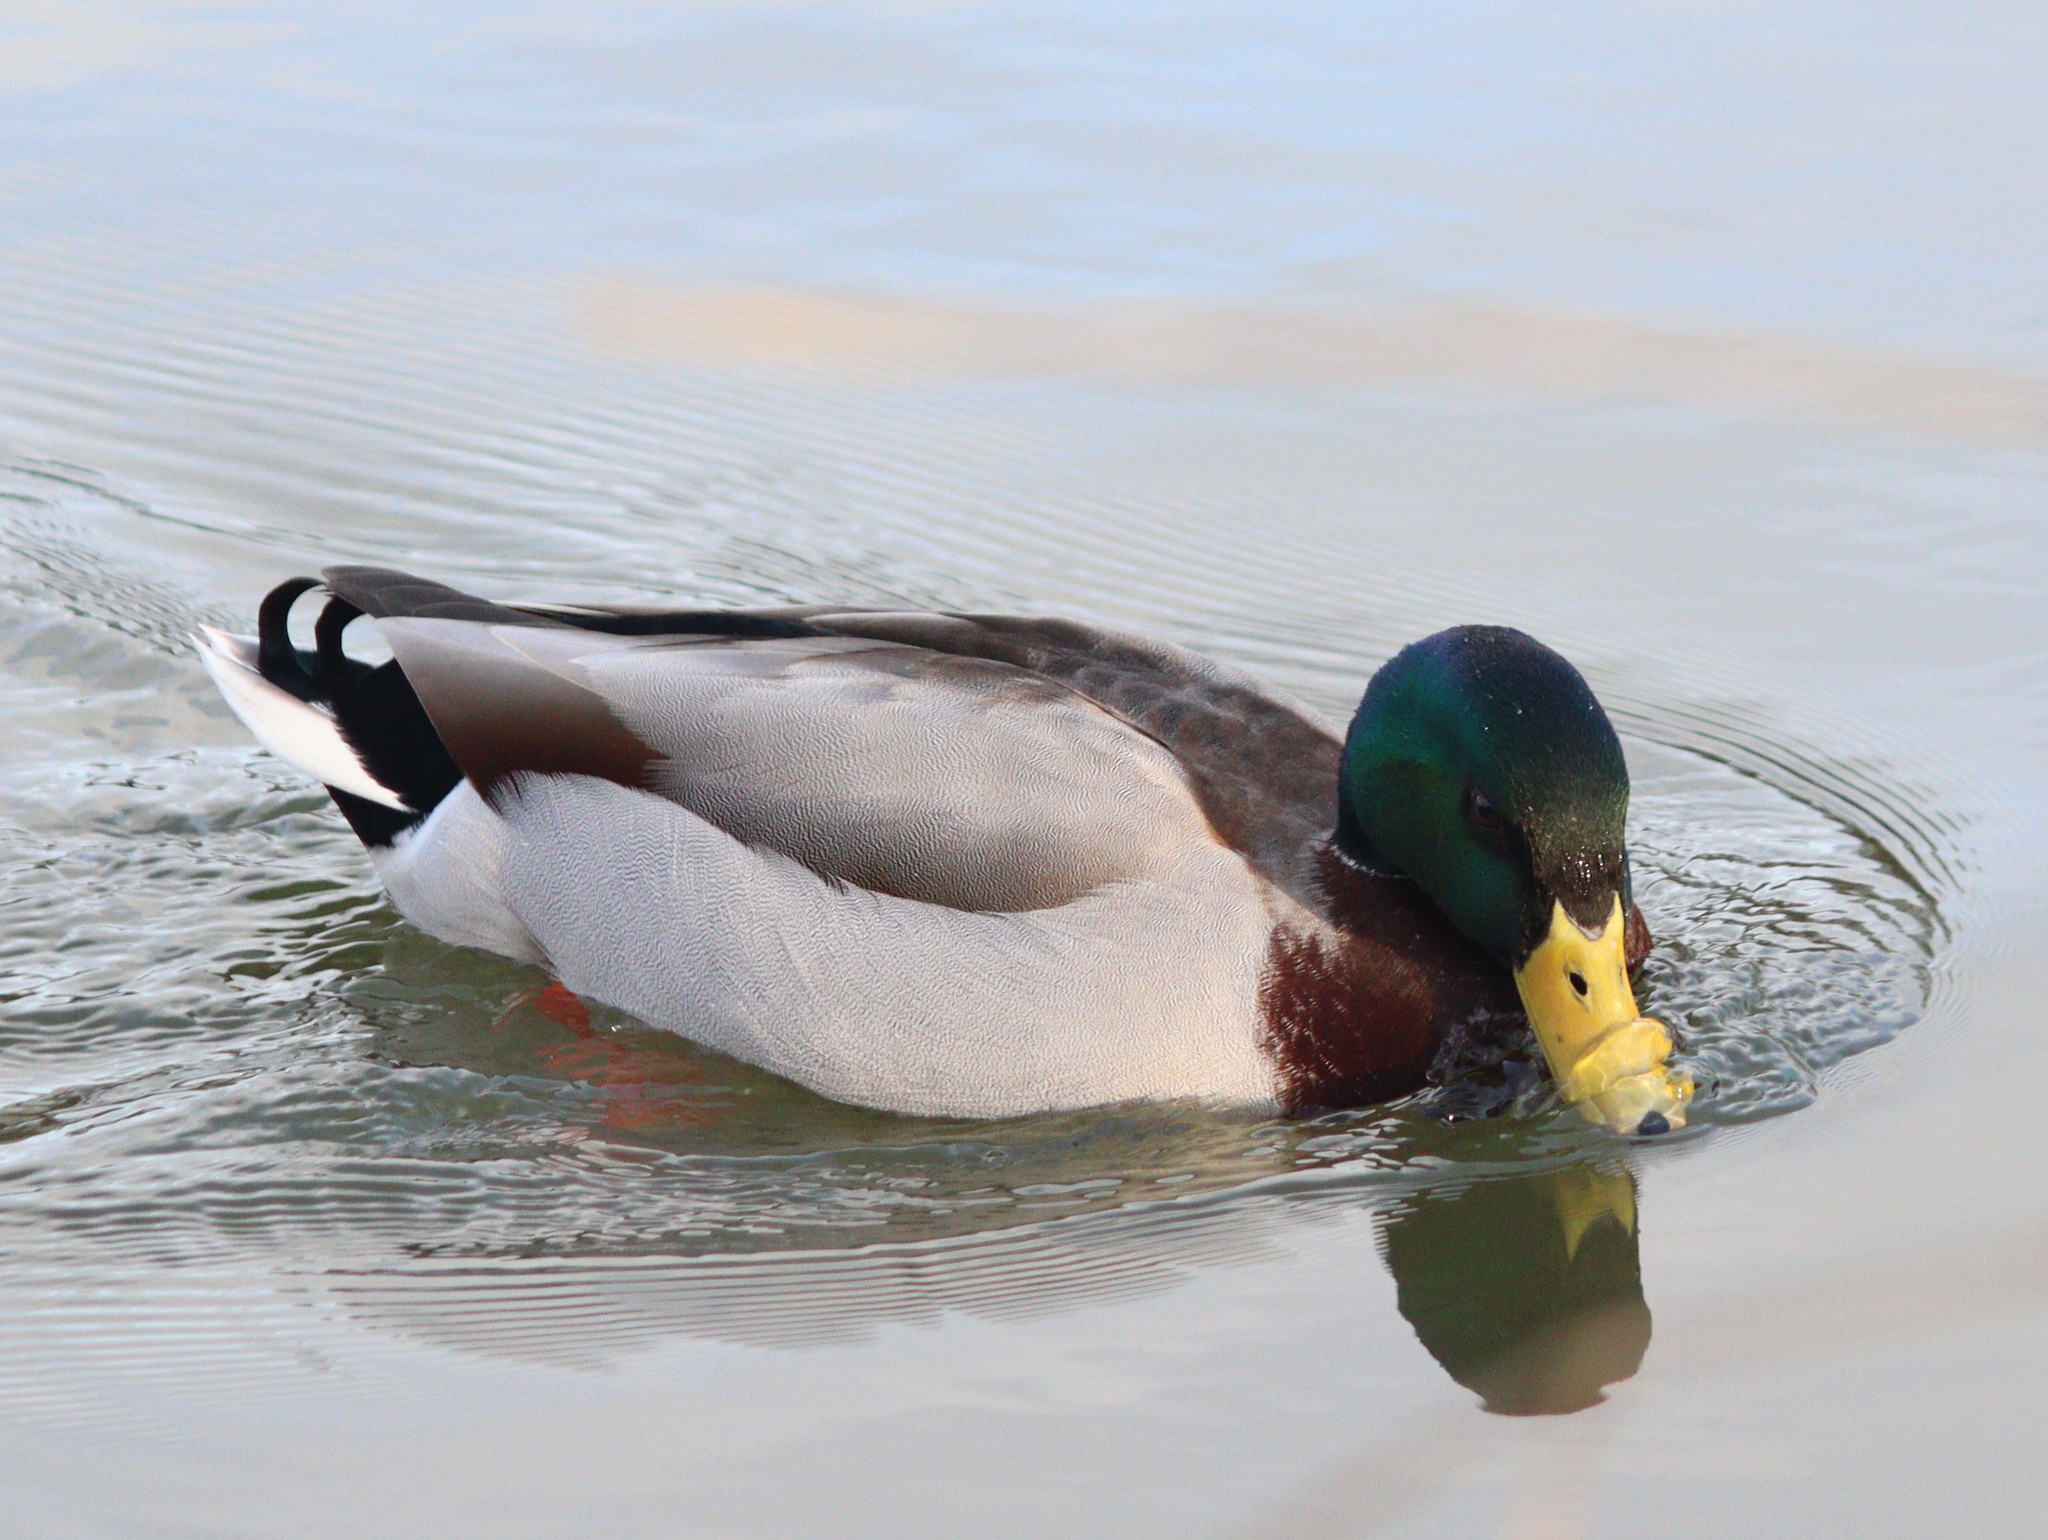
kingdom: Animalia
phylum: Chordata
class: Aves
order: Anseriformes
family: Anatidae
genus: Anas
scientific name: Anas platyrhynchos
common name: Mallard
